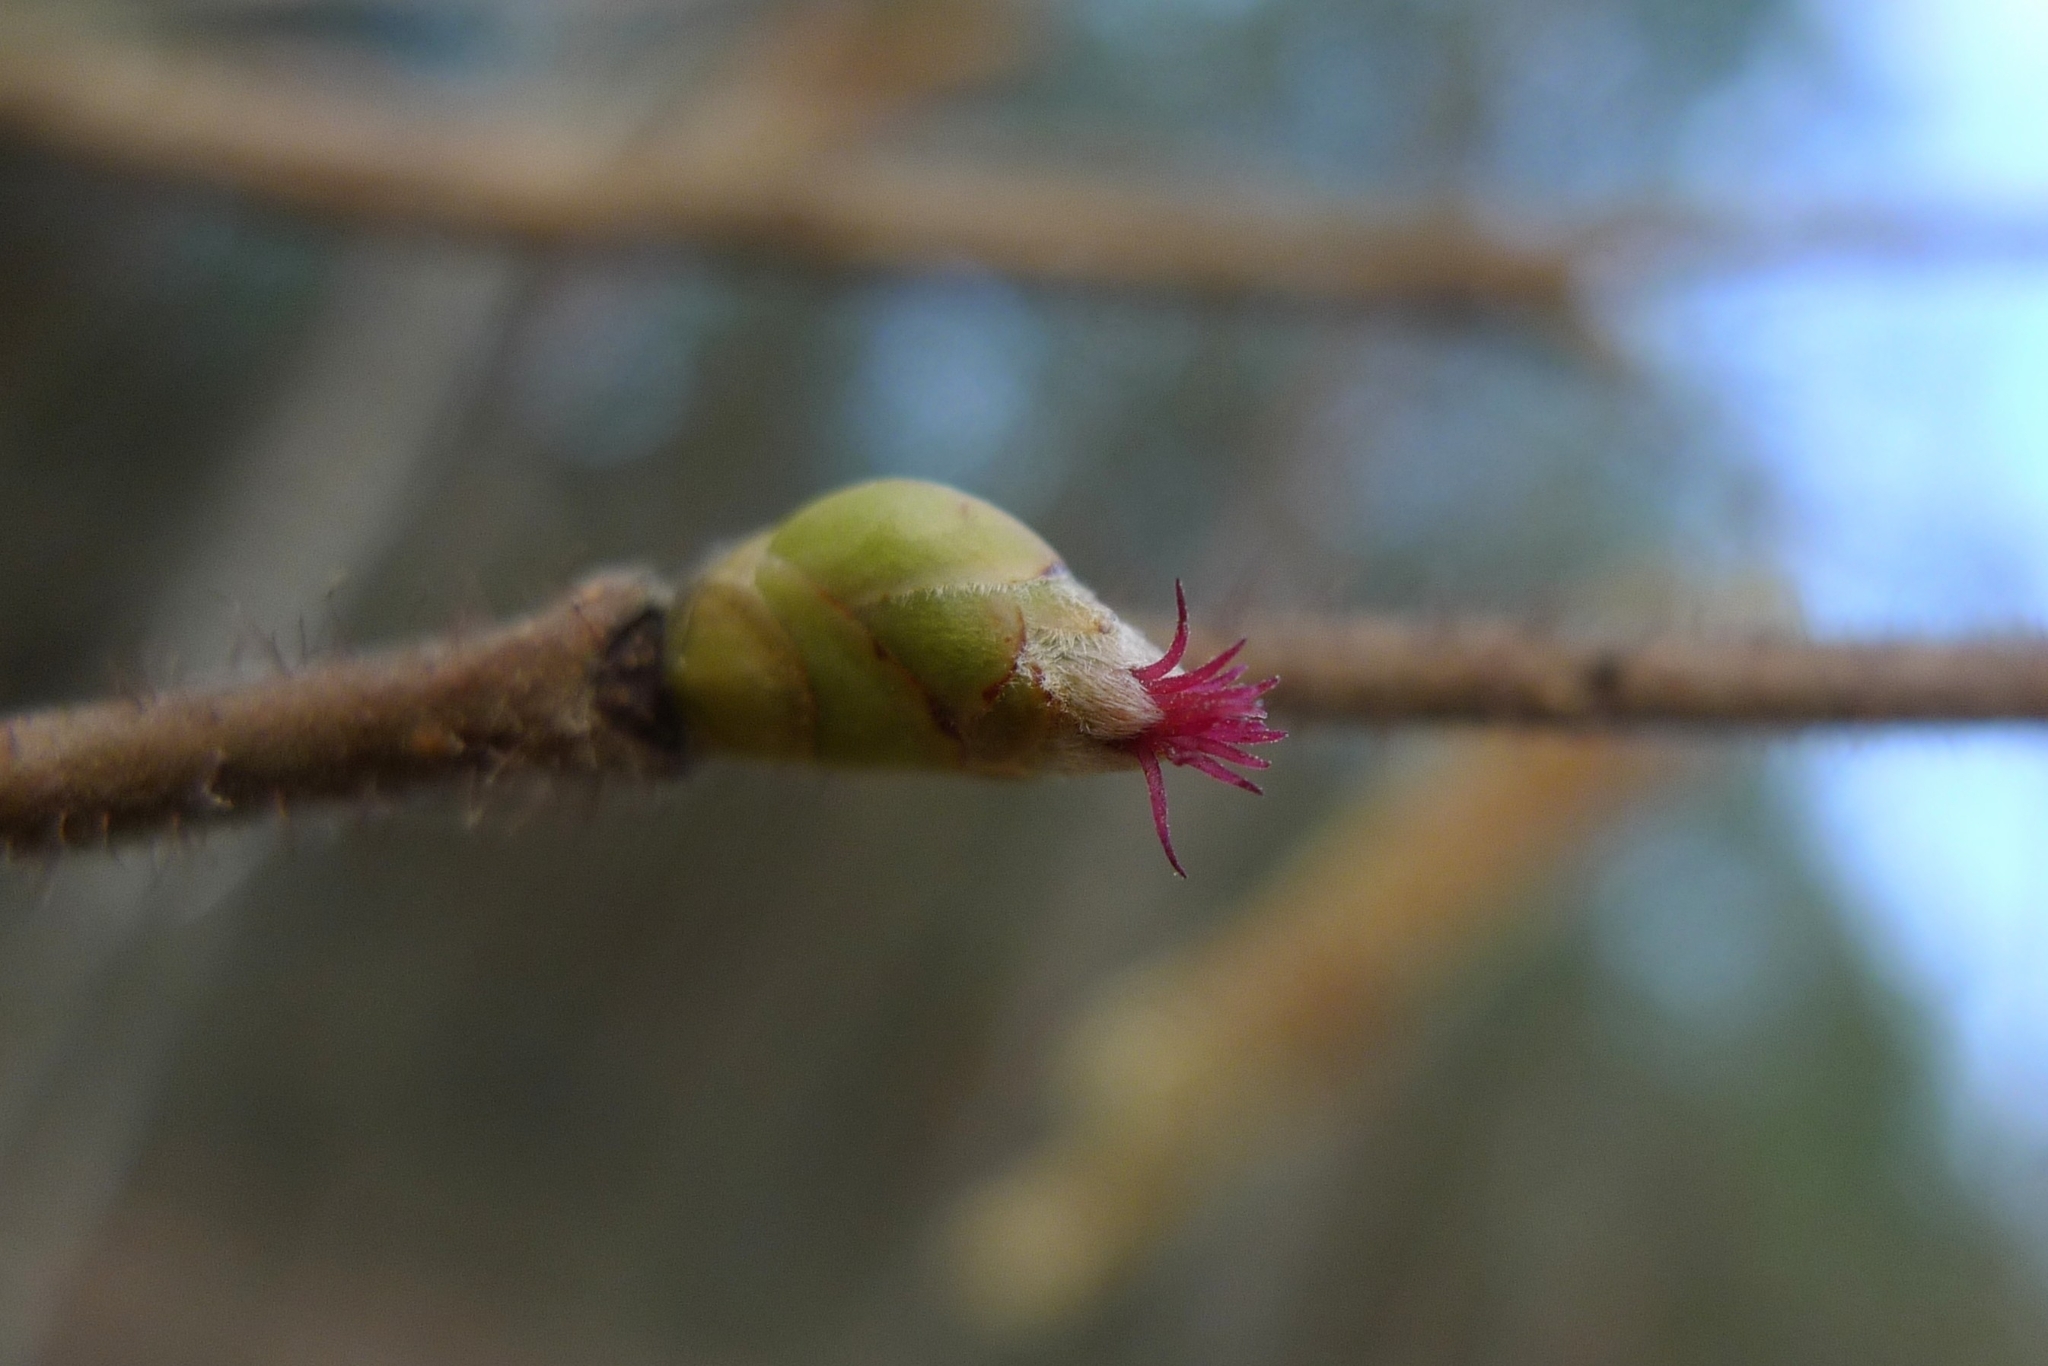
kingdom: Plantae
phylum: Tracheophyta
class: Magnoliopsida
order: Fagales
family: Betulaceae
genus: Corylus
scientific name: Corylus avellana
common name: European hazel
